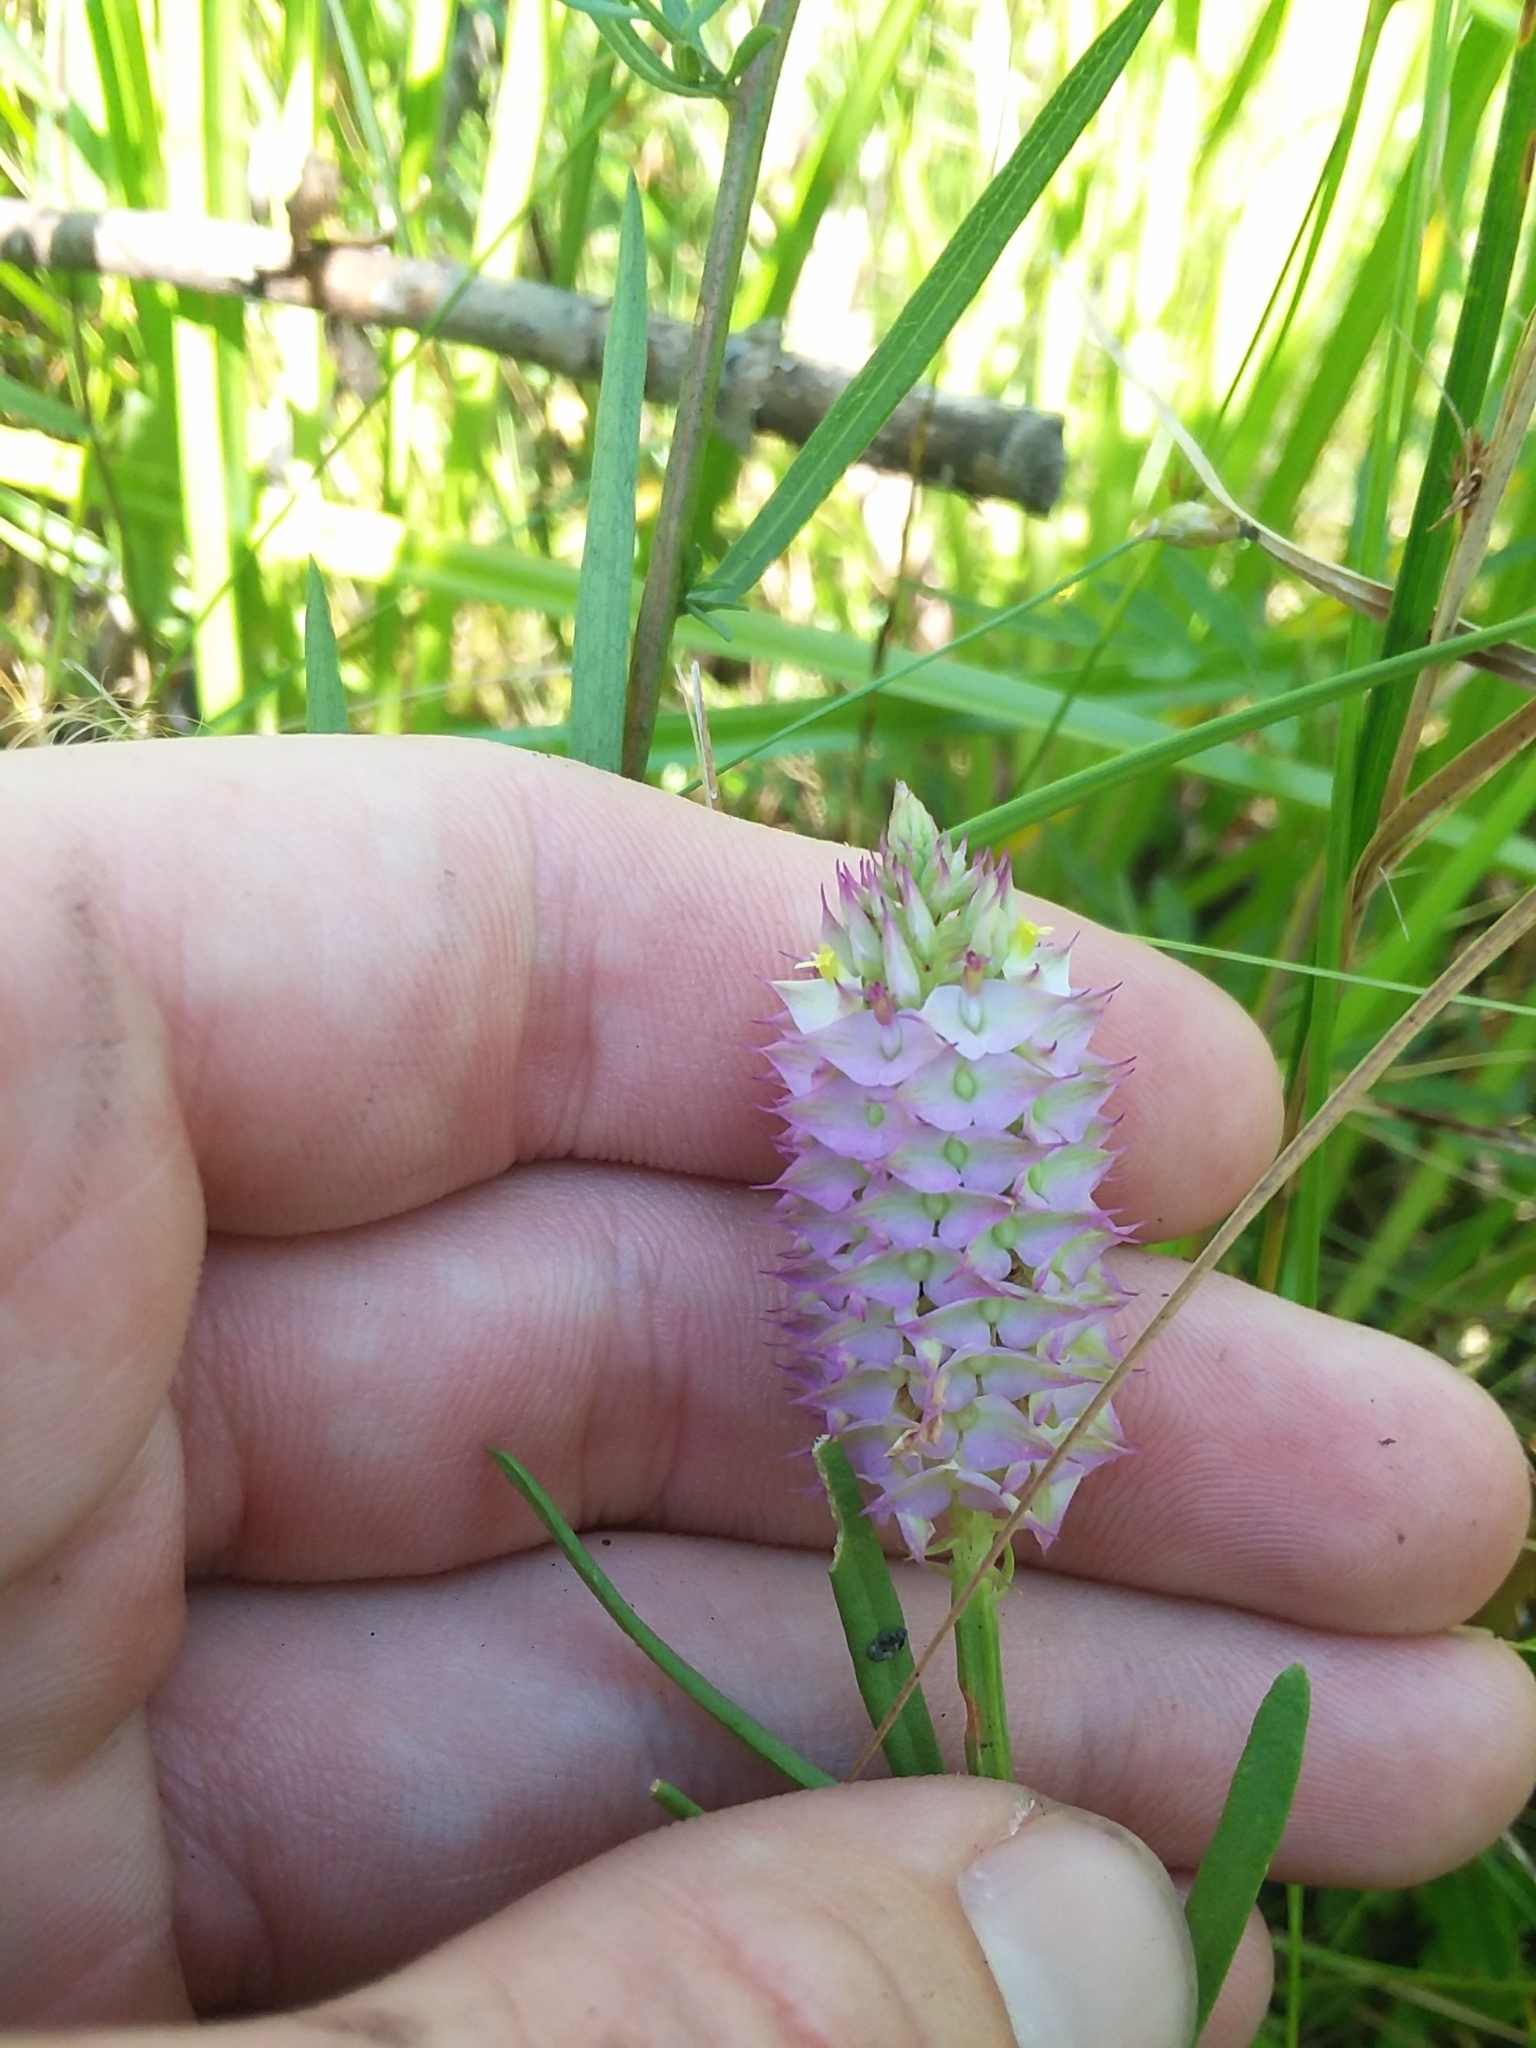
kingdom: Plantae
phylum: Tracheophyta
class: Magnoliopsida
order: Fabales
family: Polygalaceae
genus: Polygala
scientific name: Polygala cruciata
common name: Drumheads
